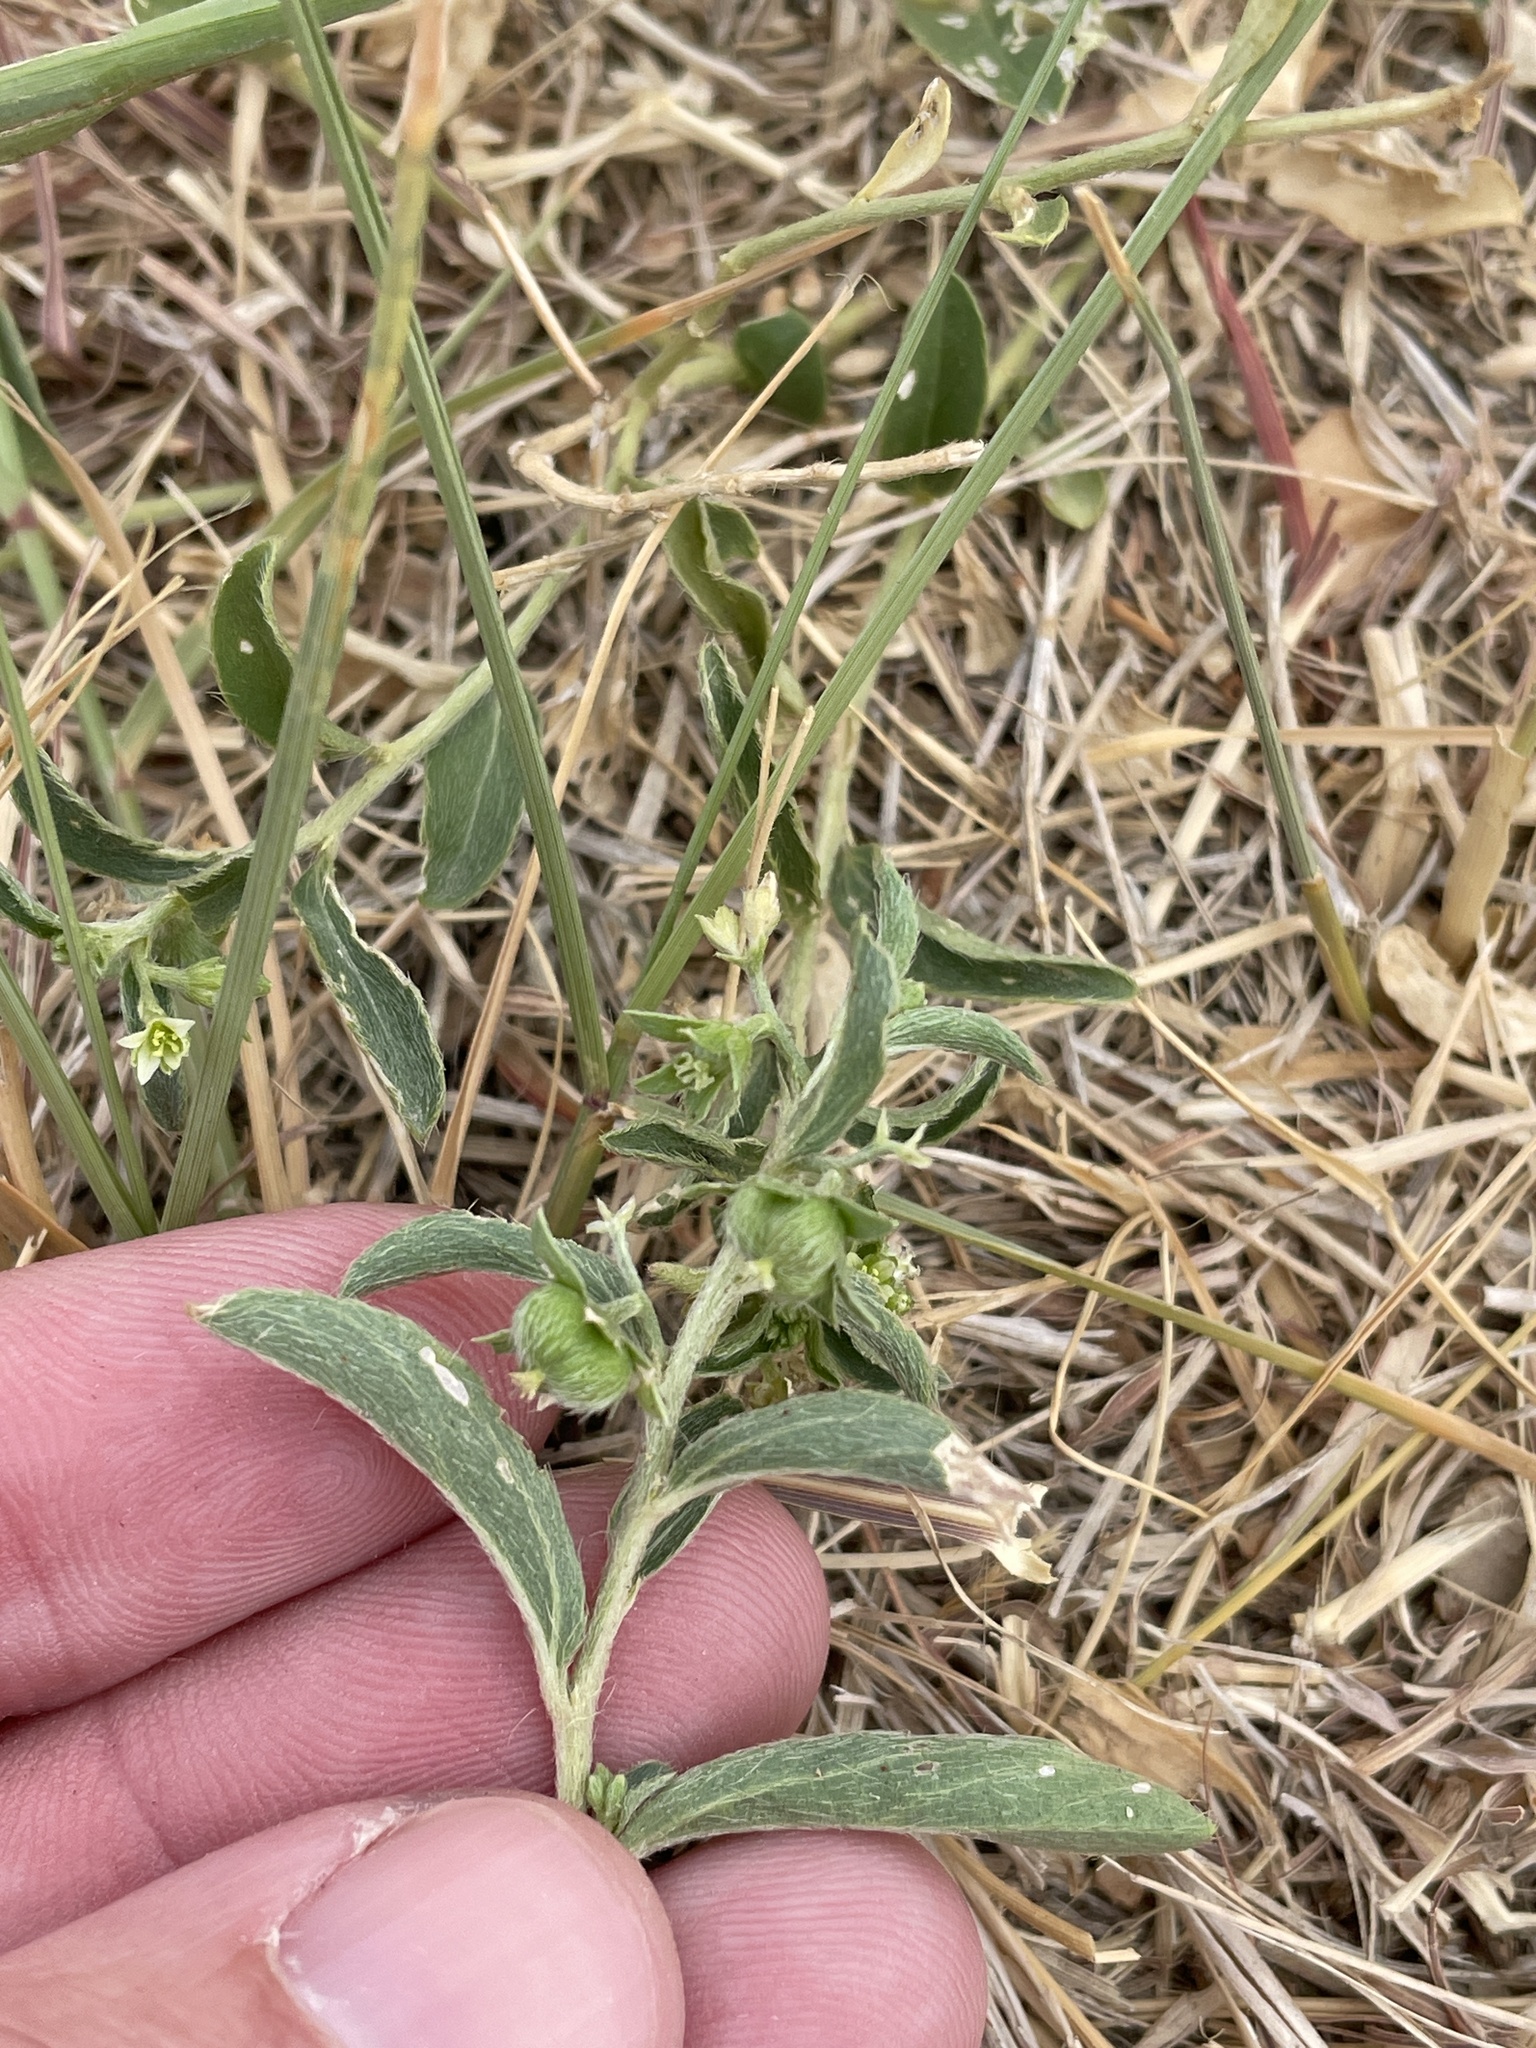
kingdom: Plantae
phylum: Tracheophyta
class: Magnoliopsida
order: Malpighiales
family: Euphorbiaceae
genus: Ditaxis
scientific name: Ditaxis humilis
